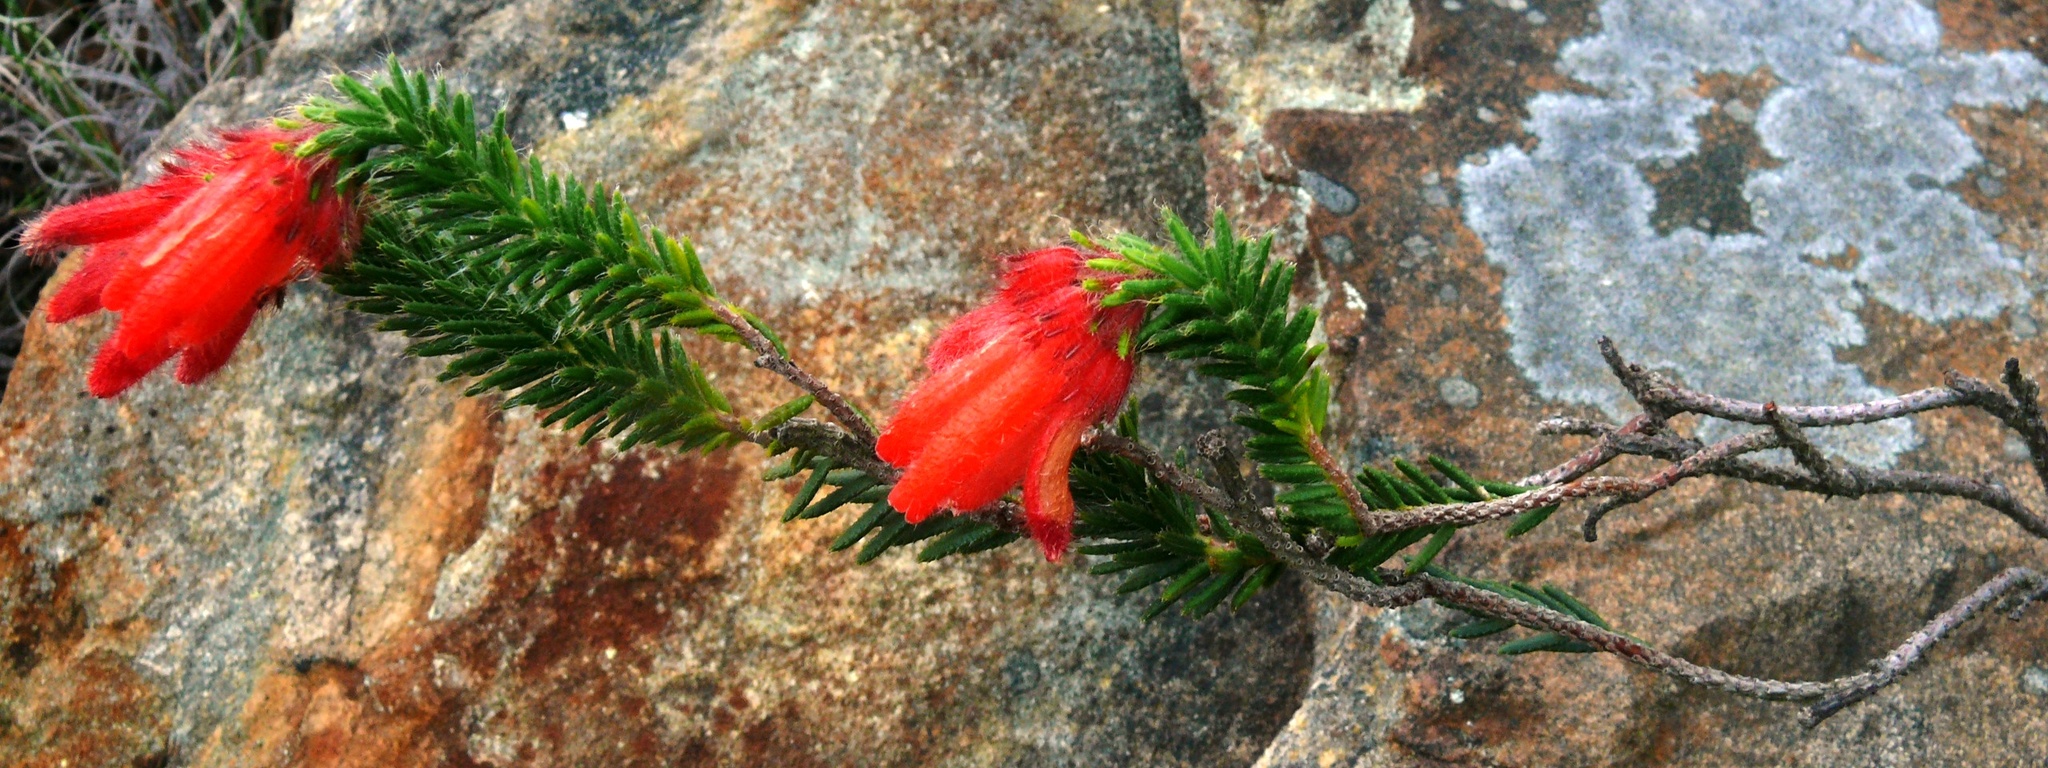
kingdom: Plantae
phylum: Tracheophyta
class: Magnoliopsida
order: Ericales
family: Ericaceae
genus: Erica
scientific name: Erica cerinthoides
